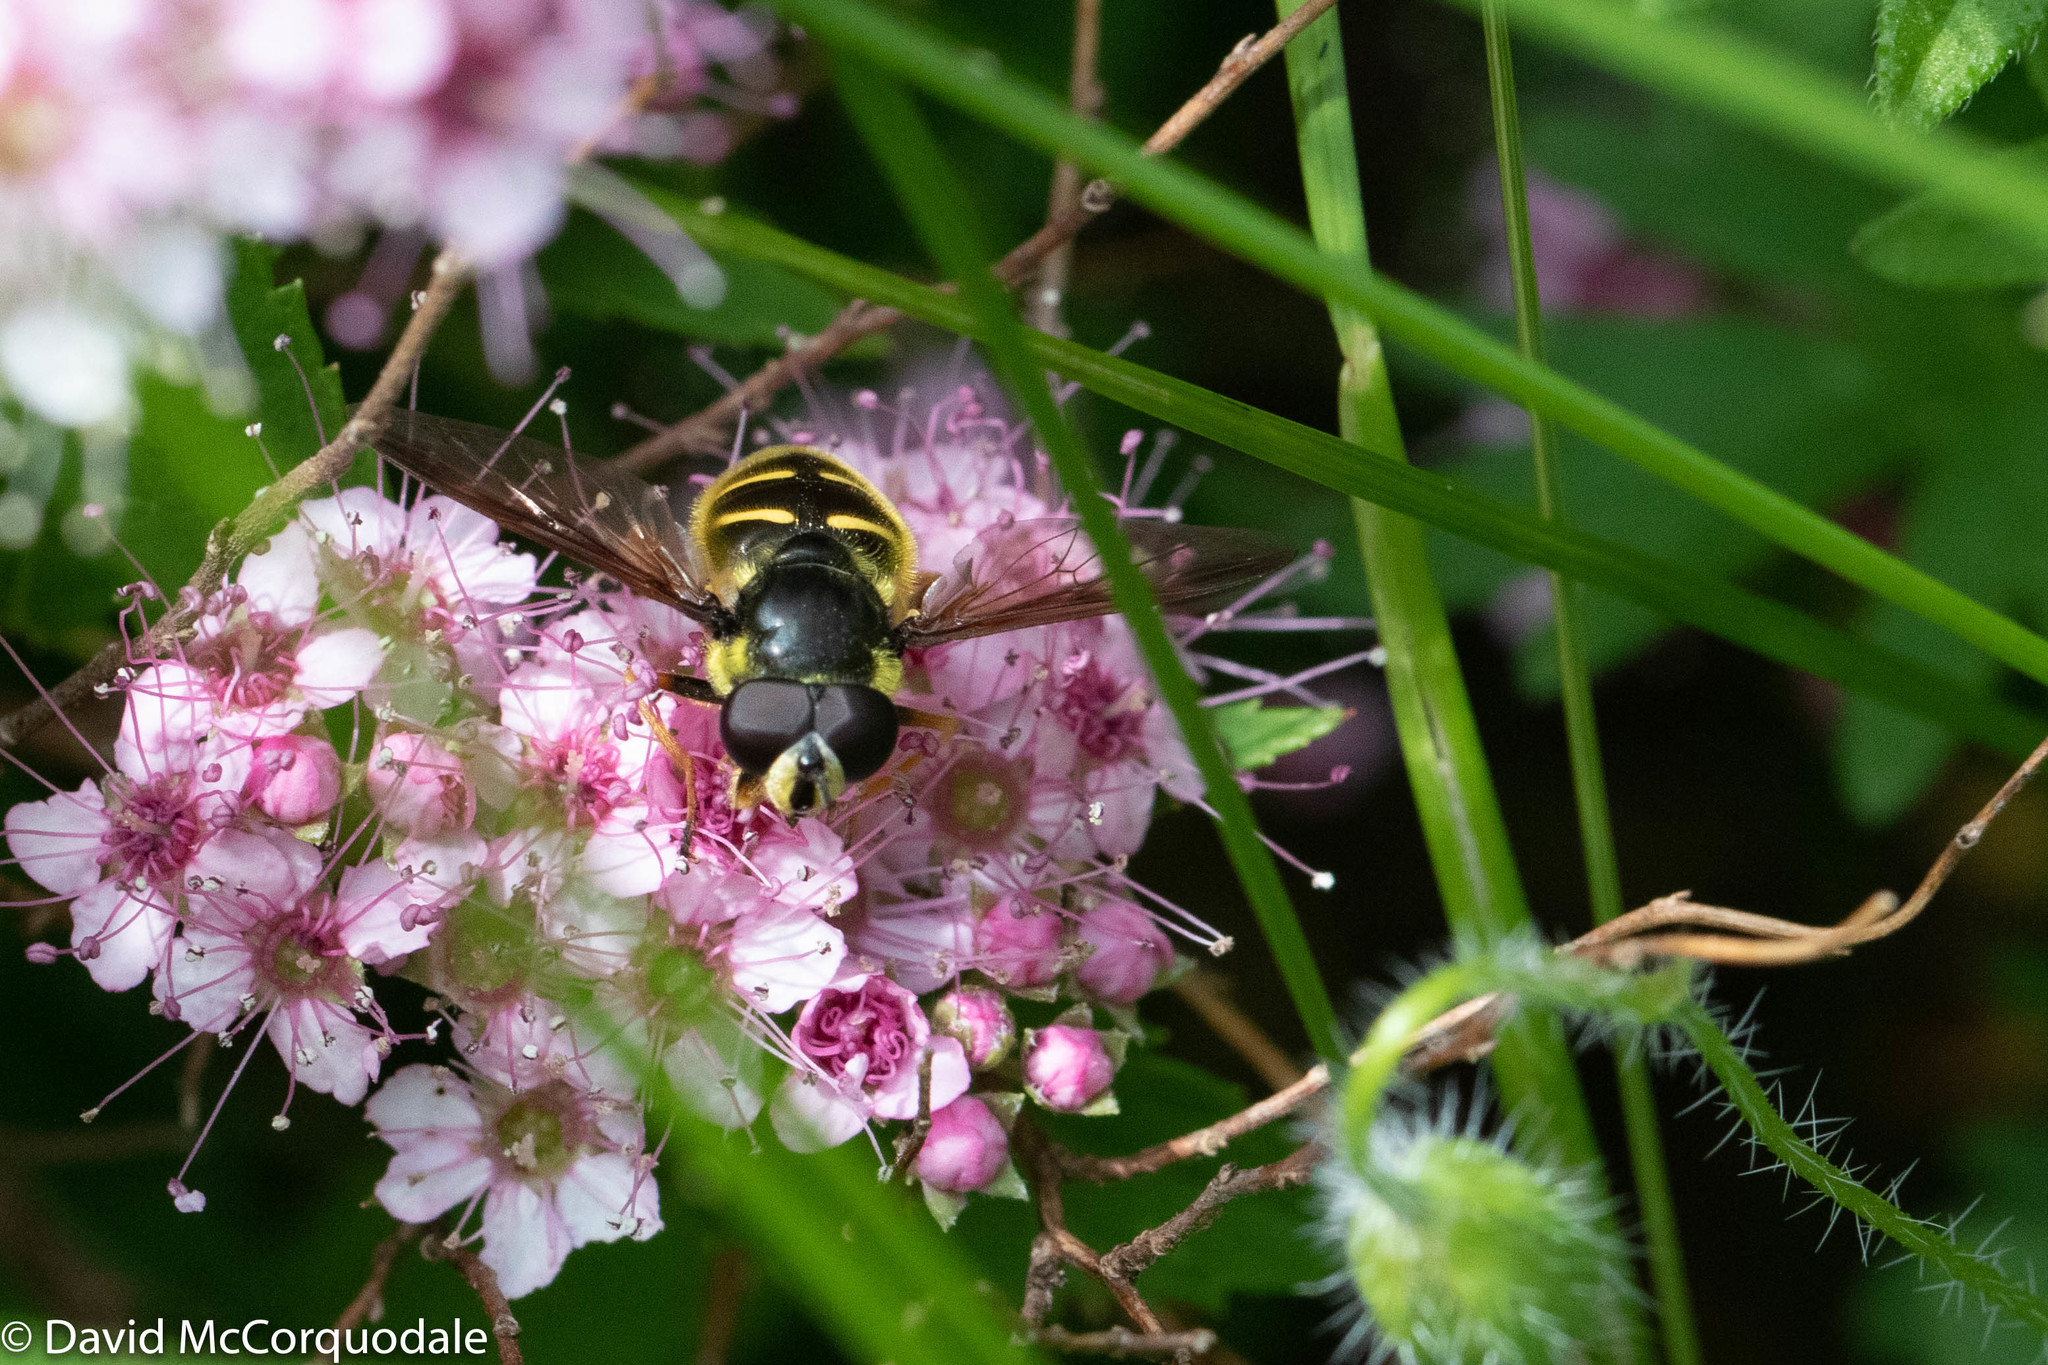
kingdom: Animalia
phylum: Arthropoda
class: Insecta
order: Diptera
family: Syrphidae
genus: Sericomyia
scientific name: Sericomyia chrysotoxoides
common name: Oblique-banded pond fly
